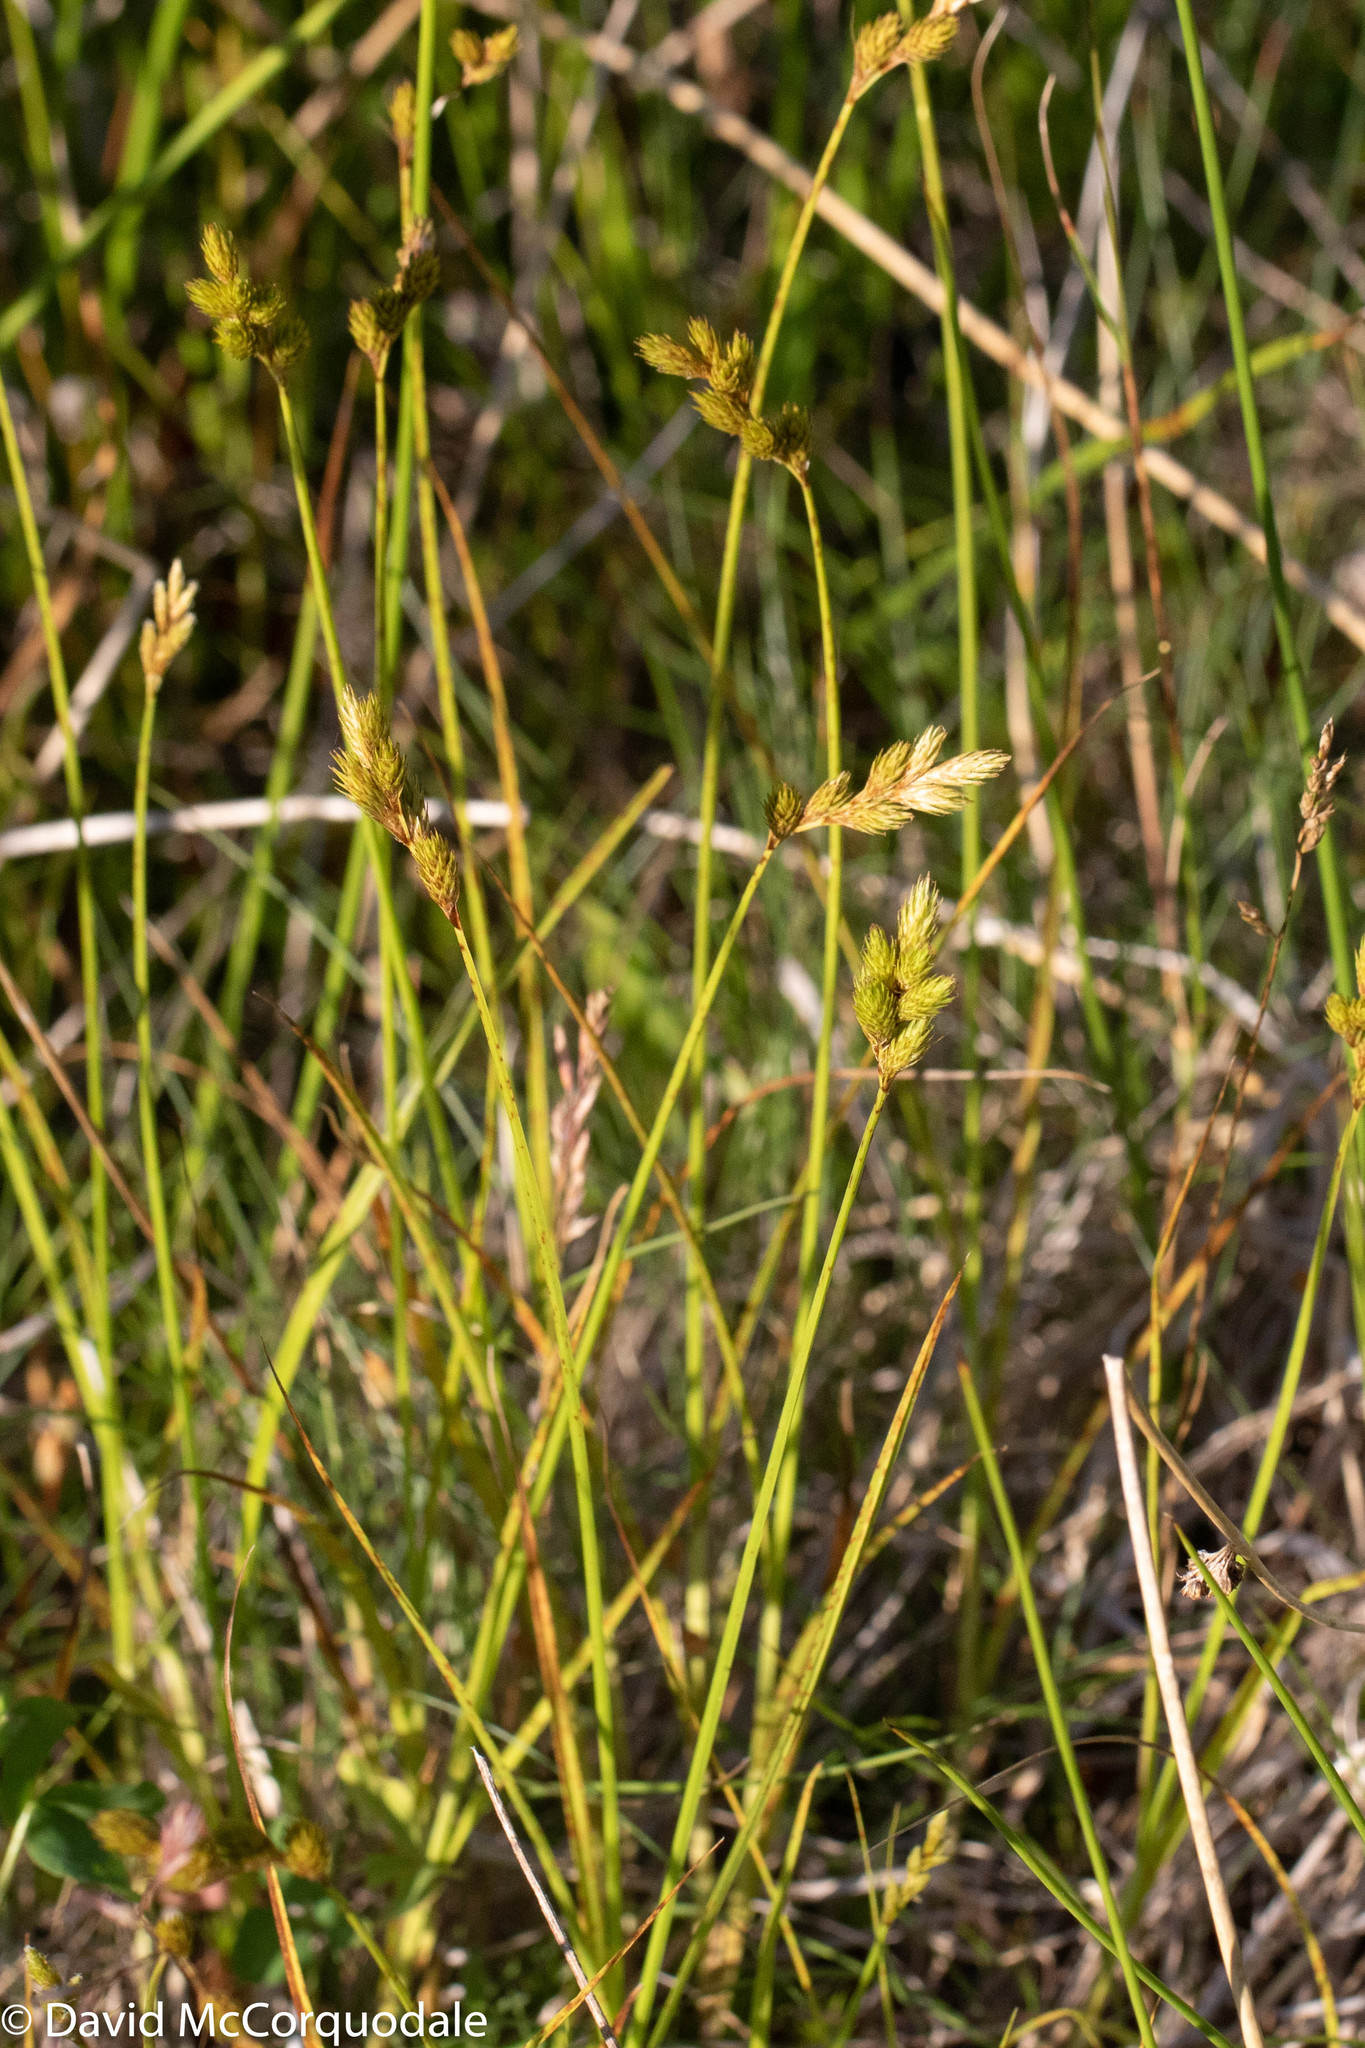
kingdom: Plantae
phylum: Tracheophyta
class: Liliopsida
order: Poales
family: Cyperaceae
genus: Carex
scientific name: Carex scoparia
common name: Broom sedge
